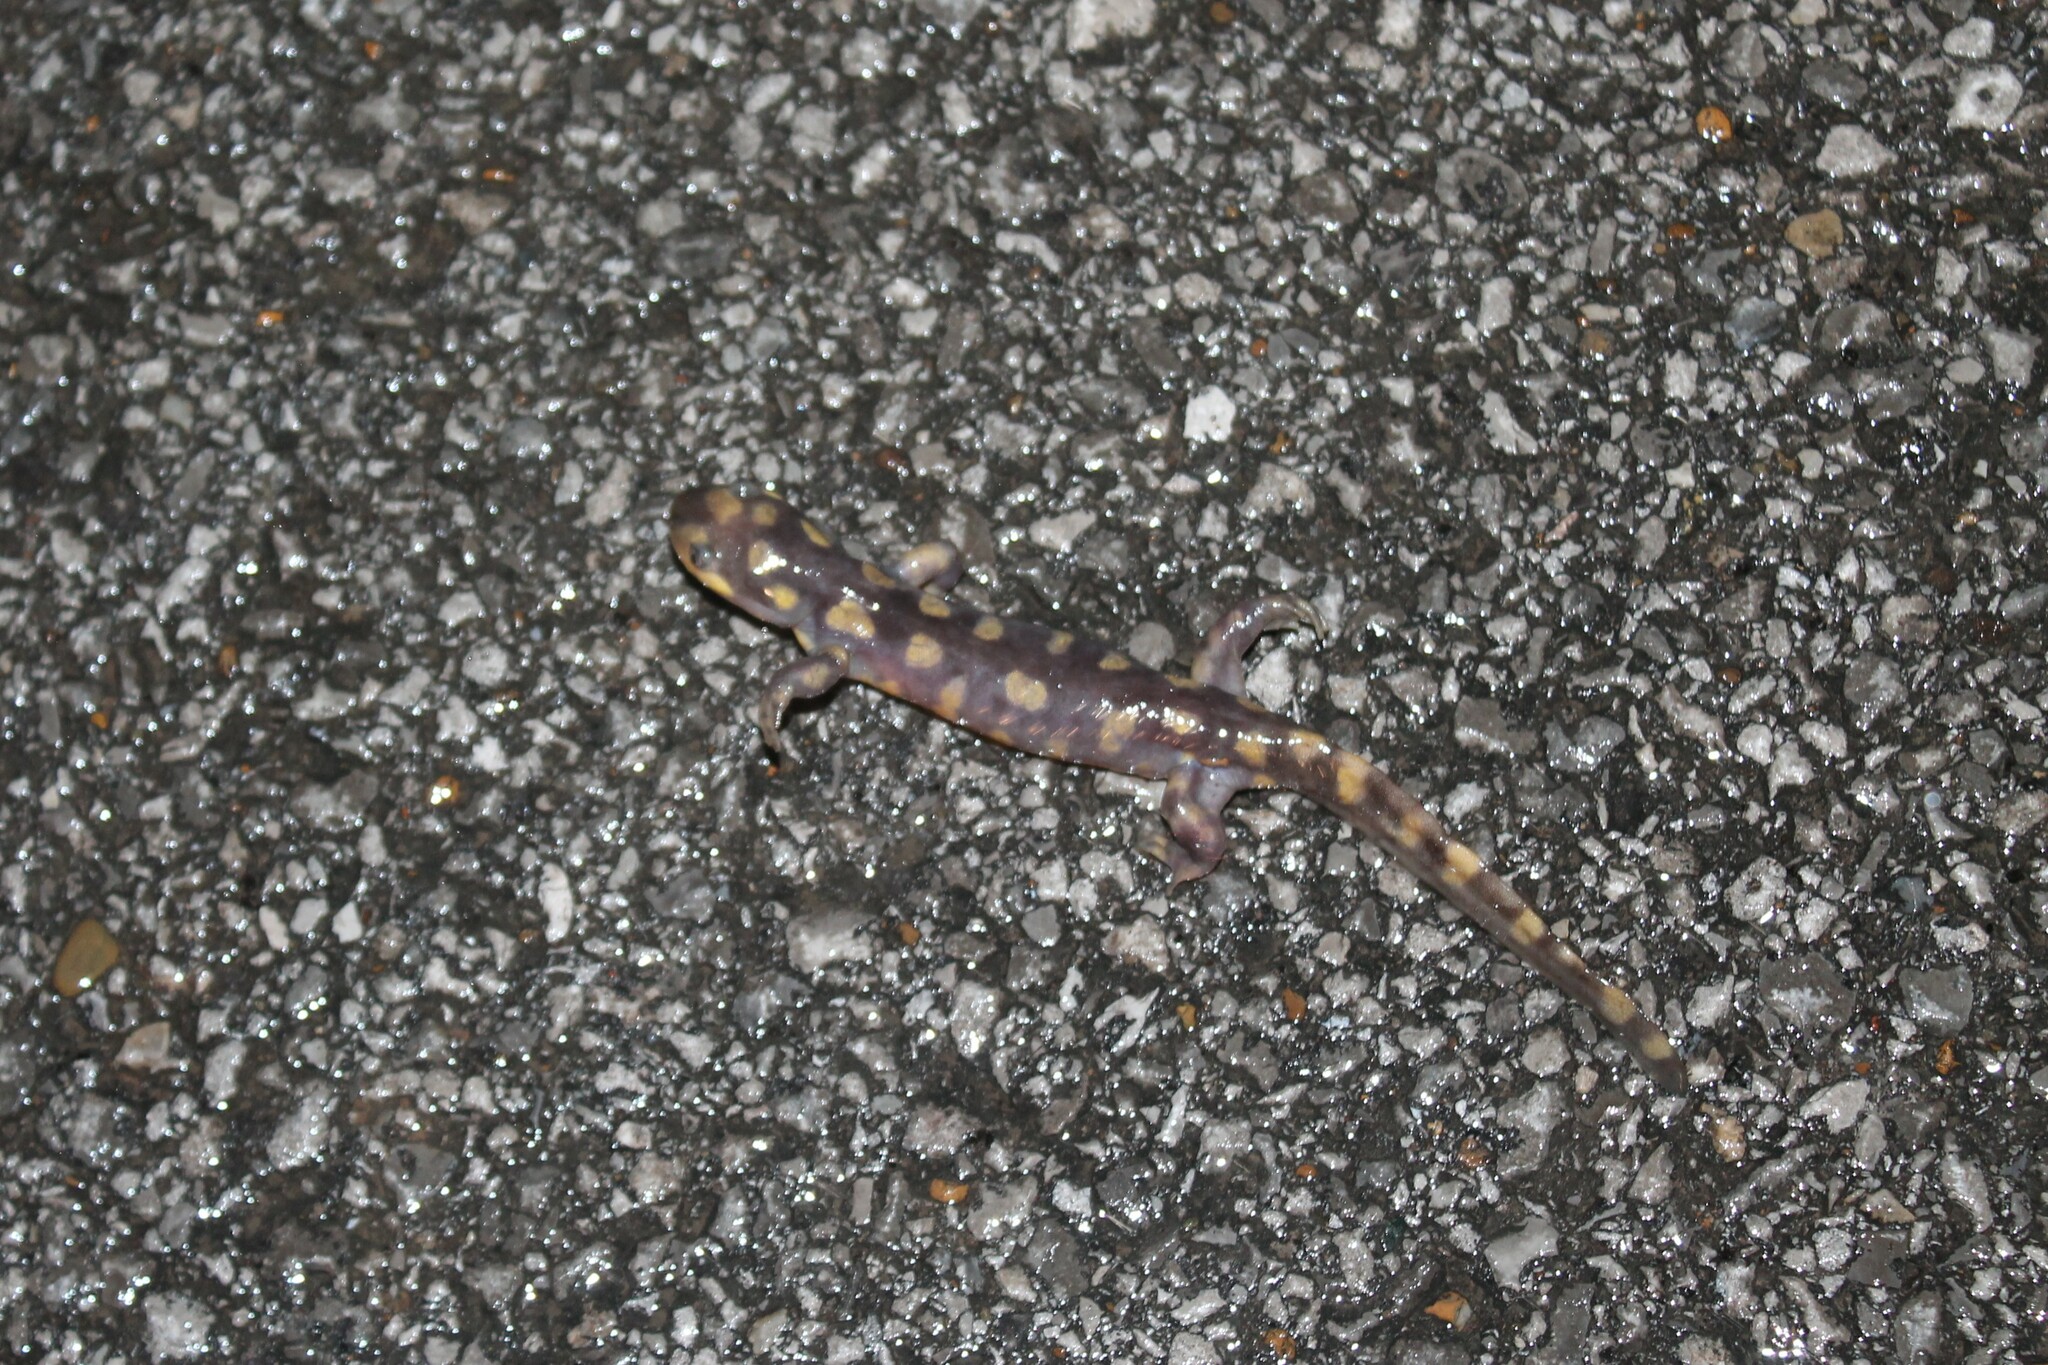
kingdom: Animalia
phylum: Chordata
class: Amphibia
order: Caudata
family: Ambystomatidae
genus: Ambystoma
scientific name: Ambystoma tigrinum
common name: Tiger salamander
